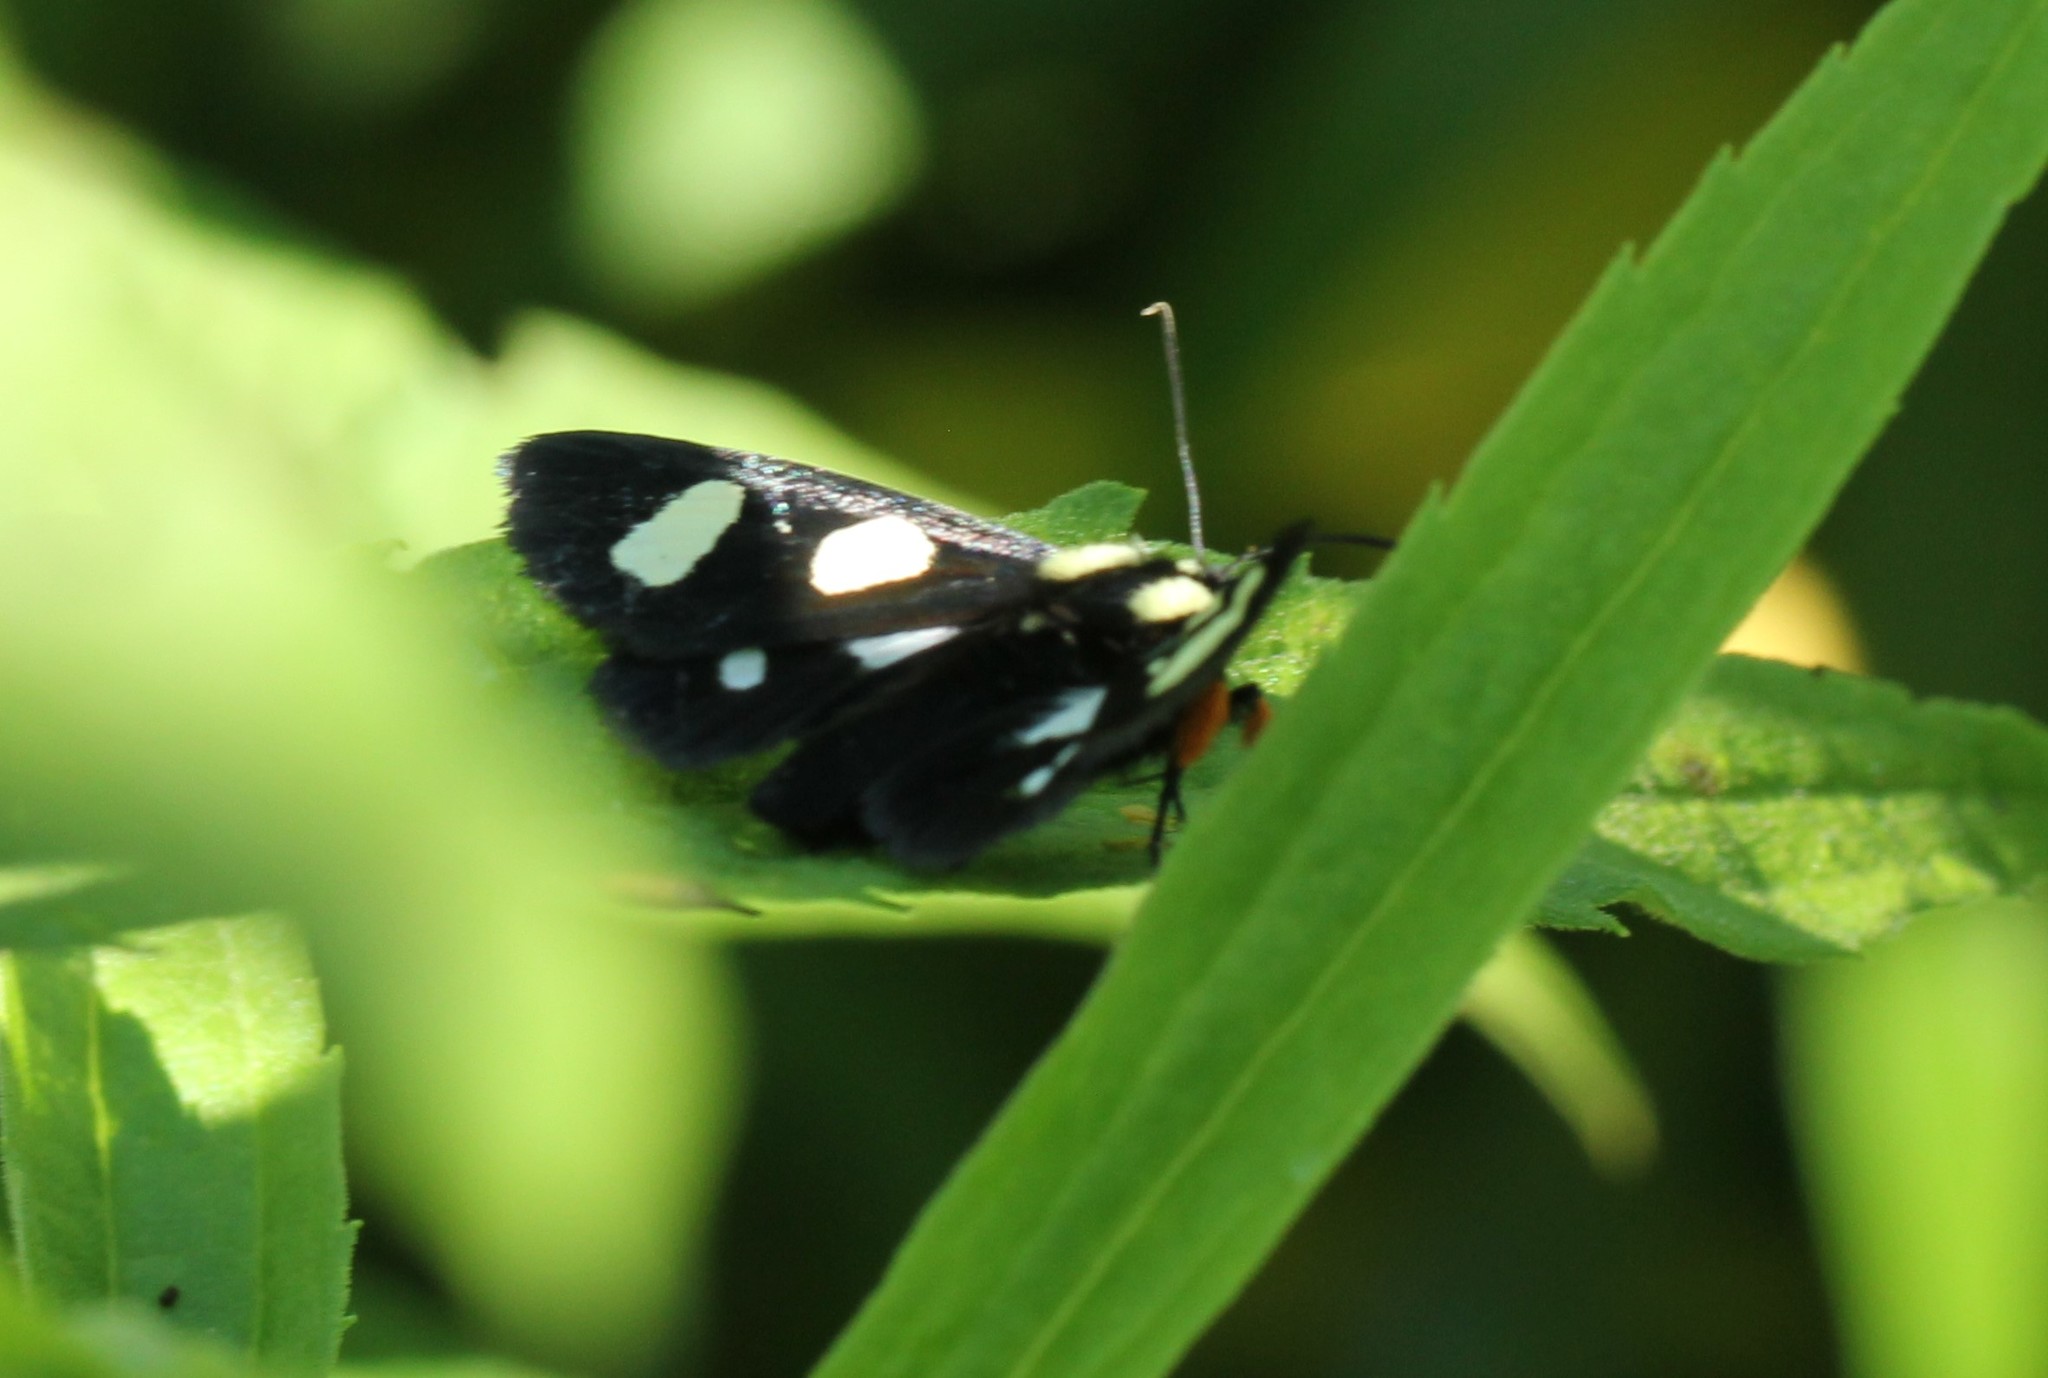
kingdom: Animalia
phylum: Arthropoda
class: Insecta
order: Lepidoptera
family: Noctuidae
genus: Alypia
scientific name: Alypia octomaculata
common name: Eight-spotted forester
